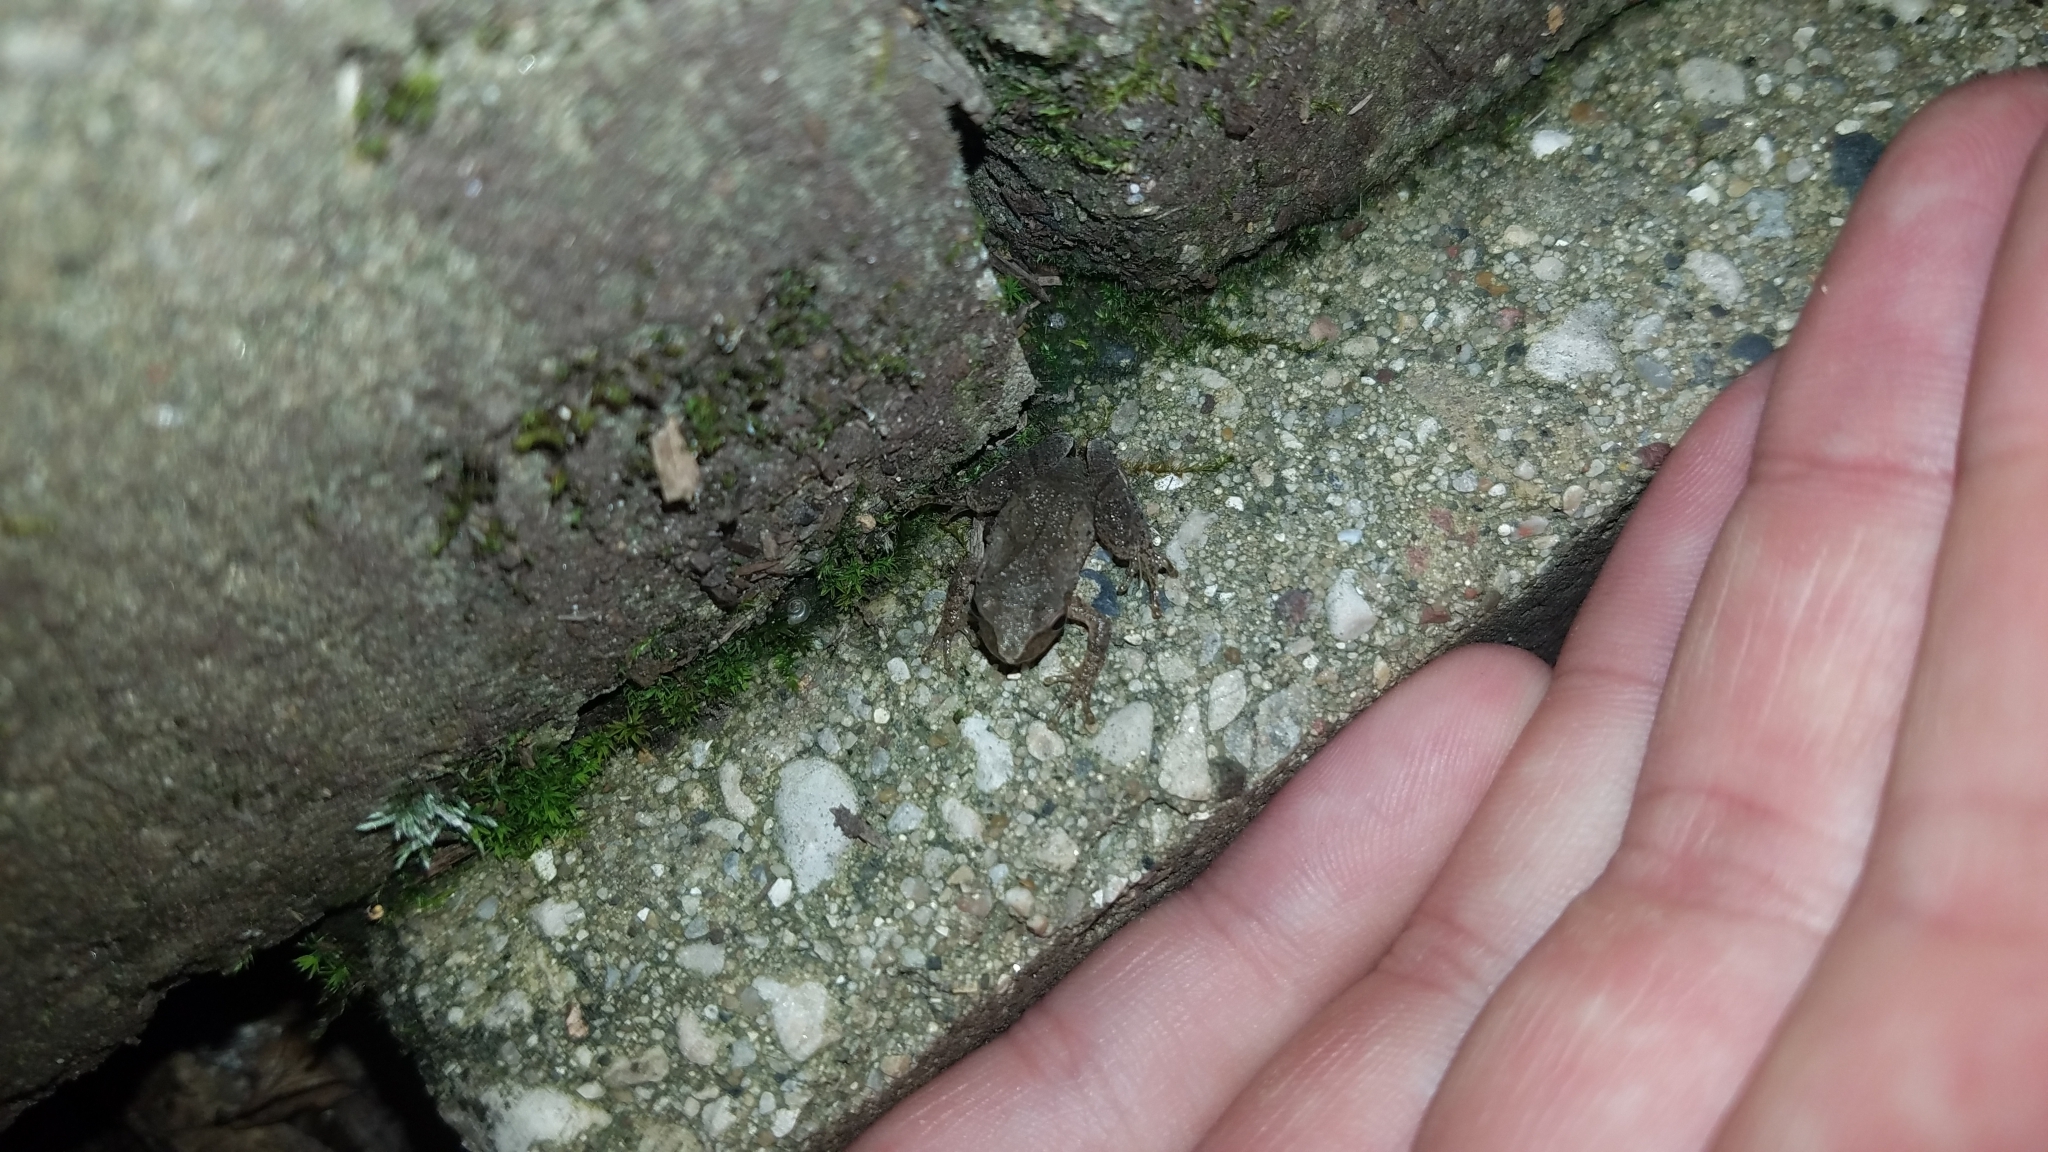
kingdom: Animalia
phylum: Chordata
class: Amphibia
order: Anura
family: Hylidae
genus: Pseudacris
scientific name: Pseudacris crucifer
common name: Spring peeper
